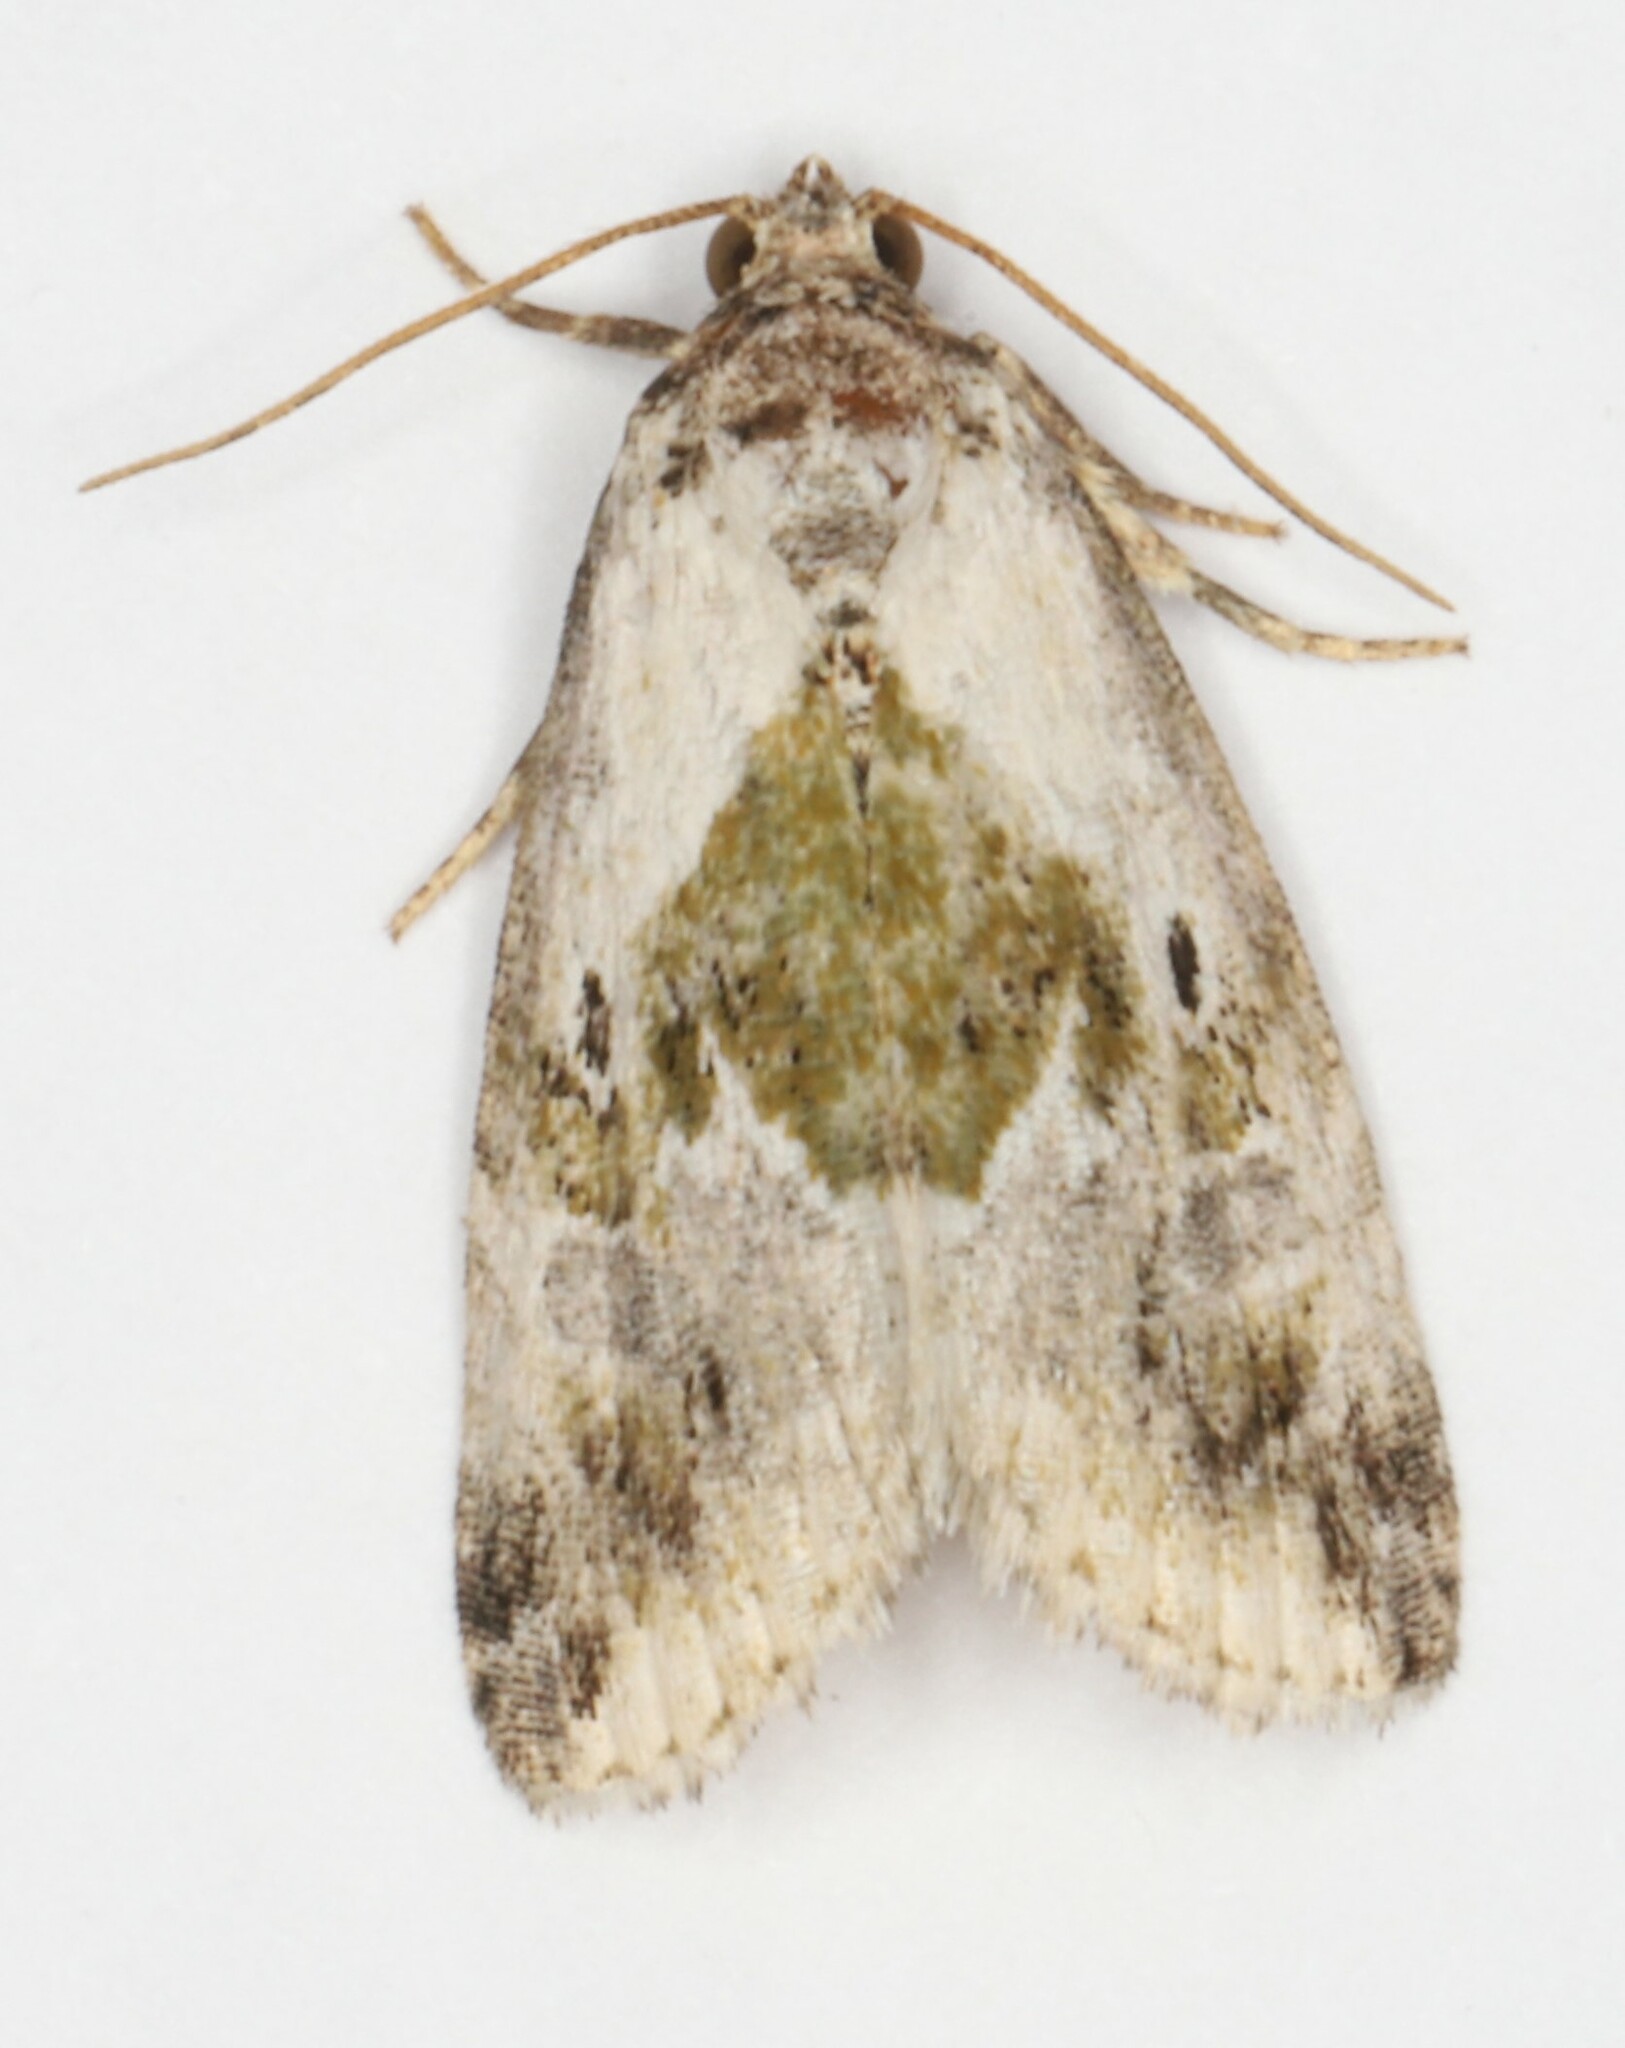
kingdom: Animalia
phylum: Arthropoda
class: Insecta
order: Lepidoptera
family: Noctuidae
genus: Maliattha
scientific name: Maliattha synochitis
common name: Black-dotted glyph
